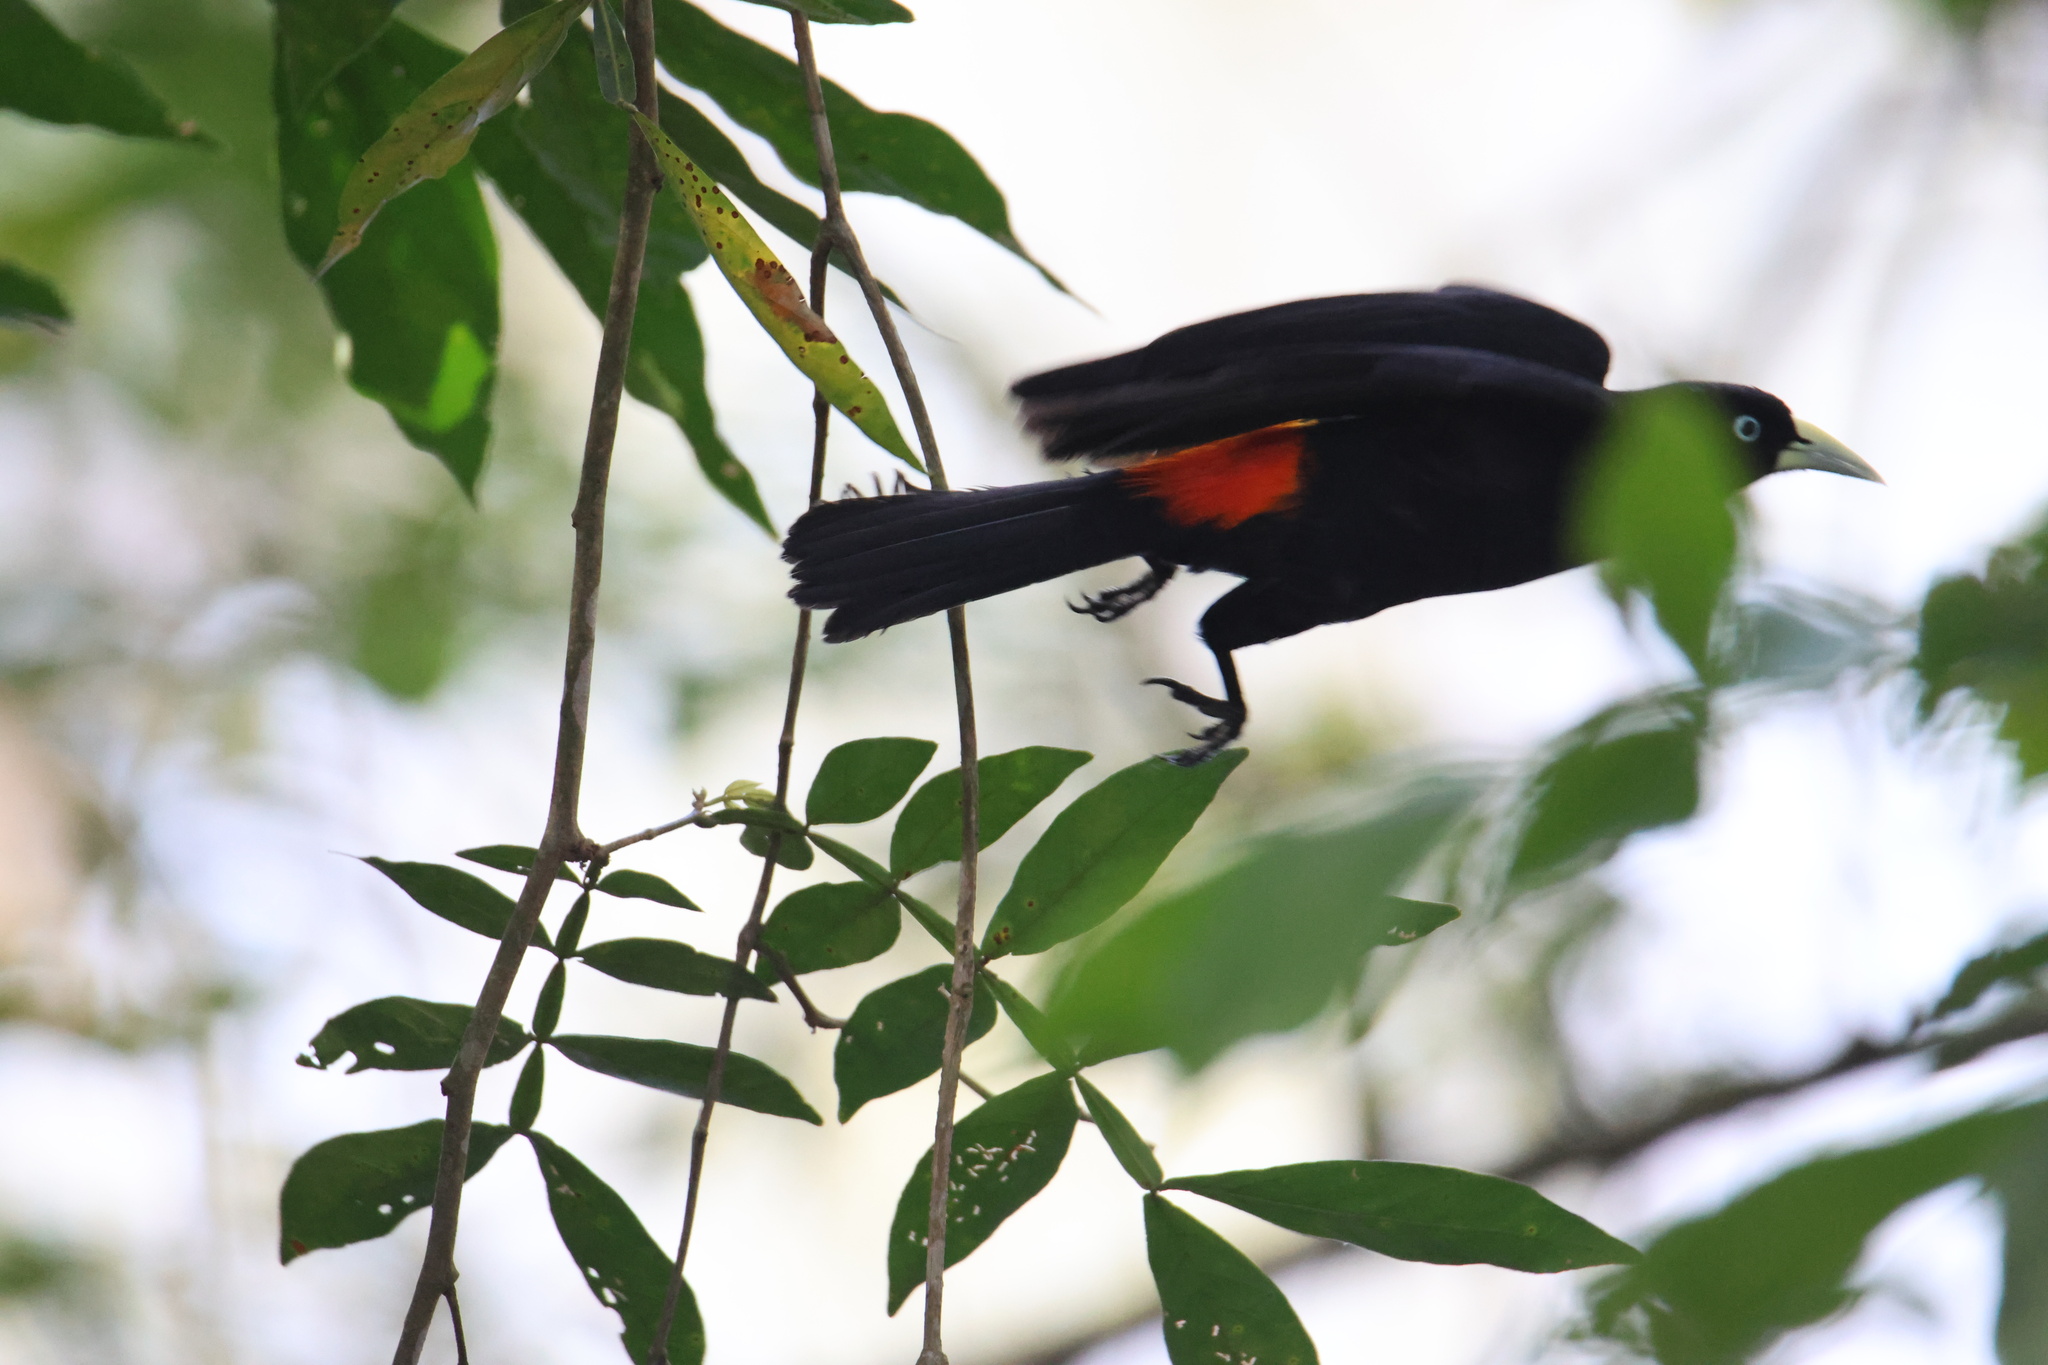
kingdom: Animalia
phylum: Chordata
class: Aves
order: Passeriformes
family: Icteridae
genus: Cacicus
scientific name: Cacicus uropygialis
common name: Scarlet-rumped cacique
